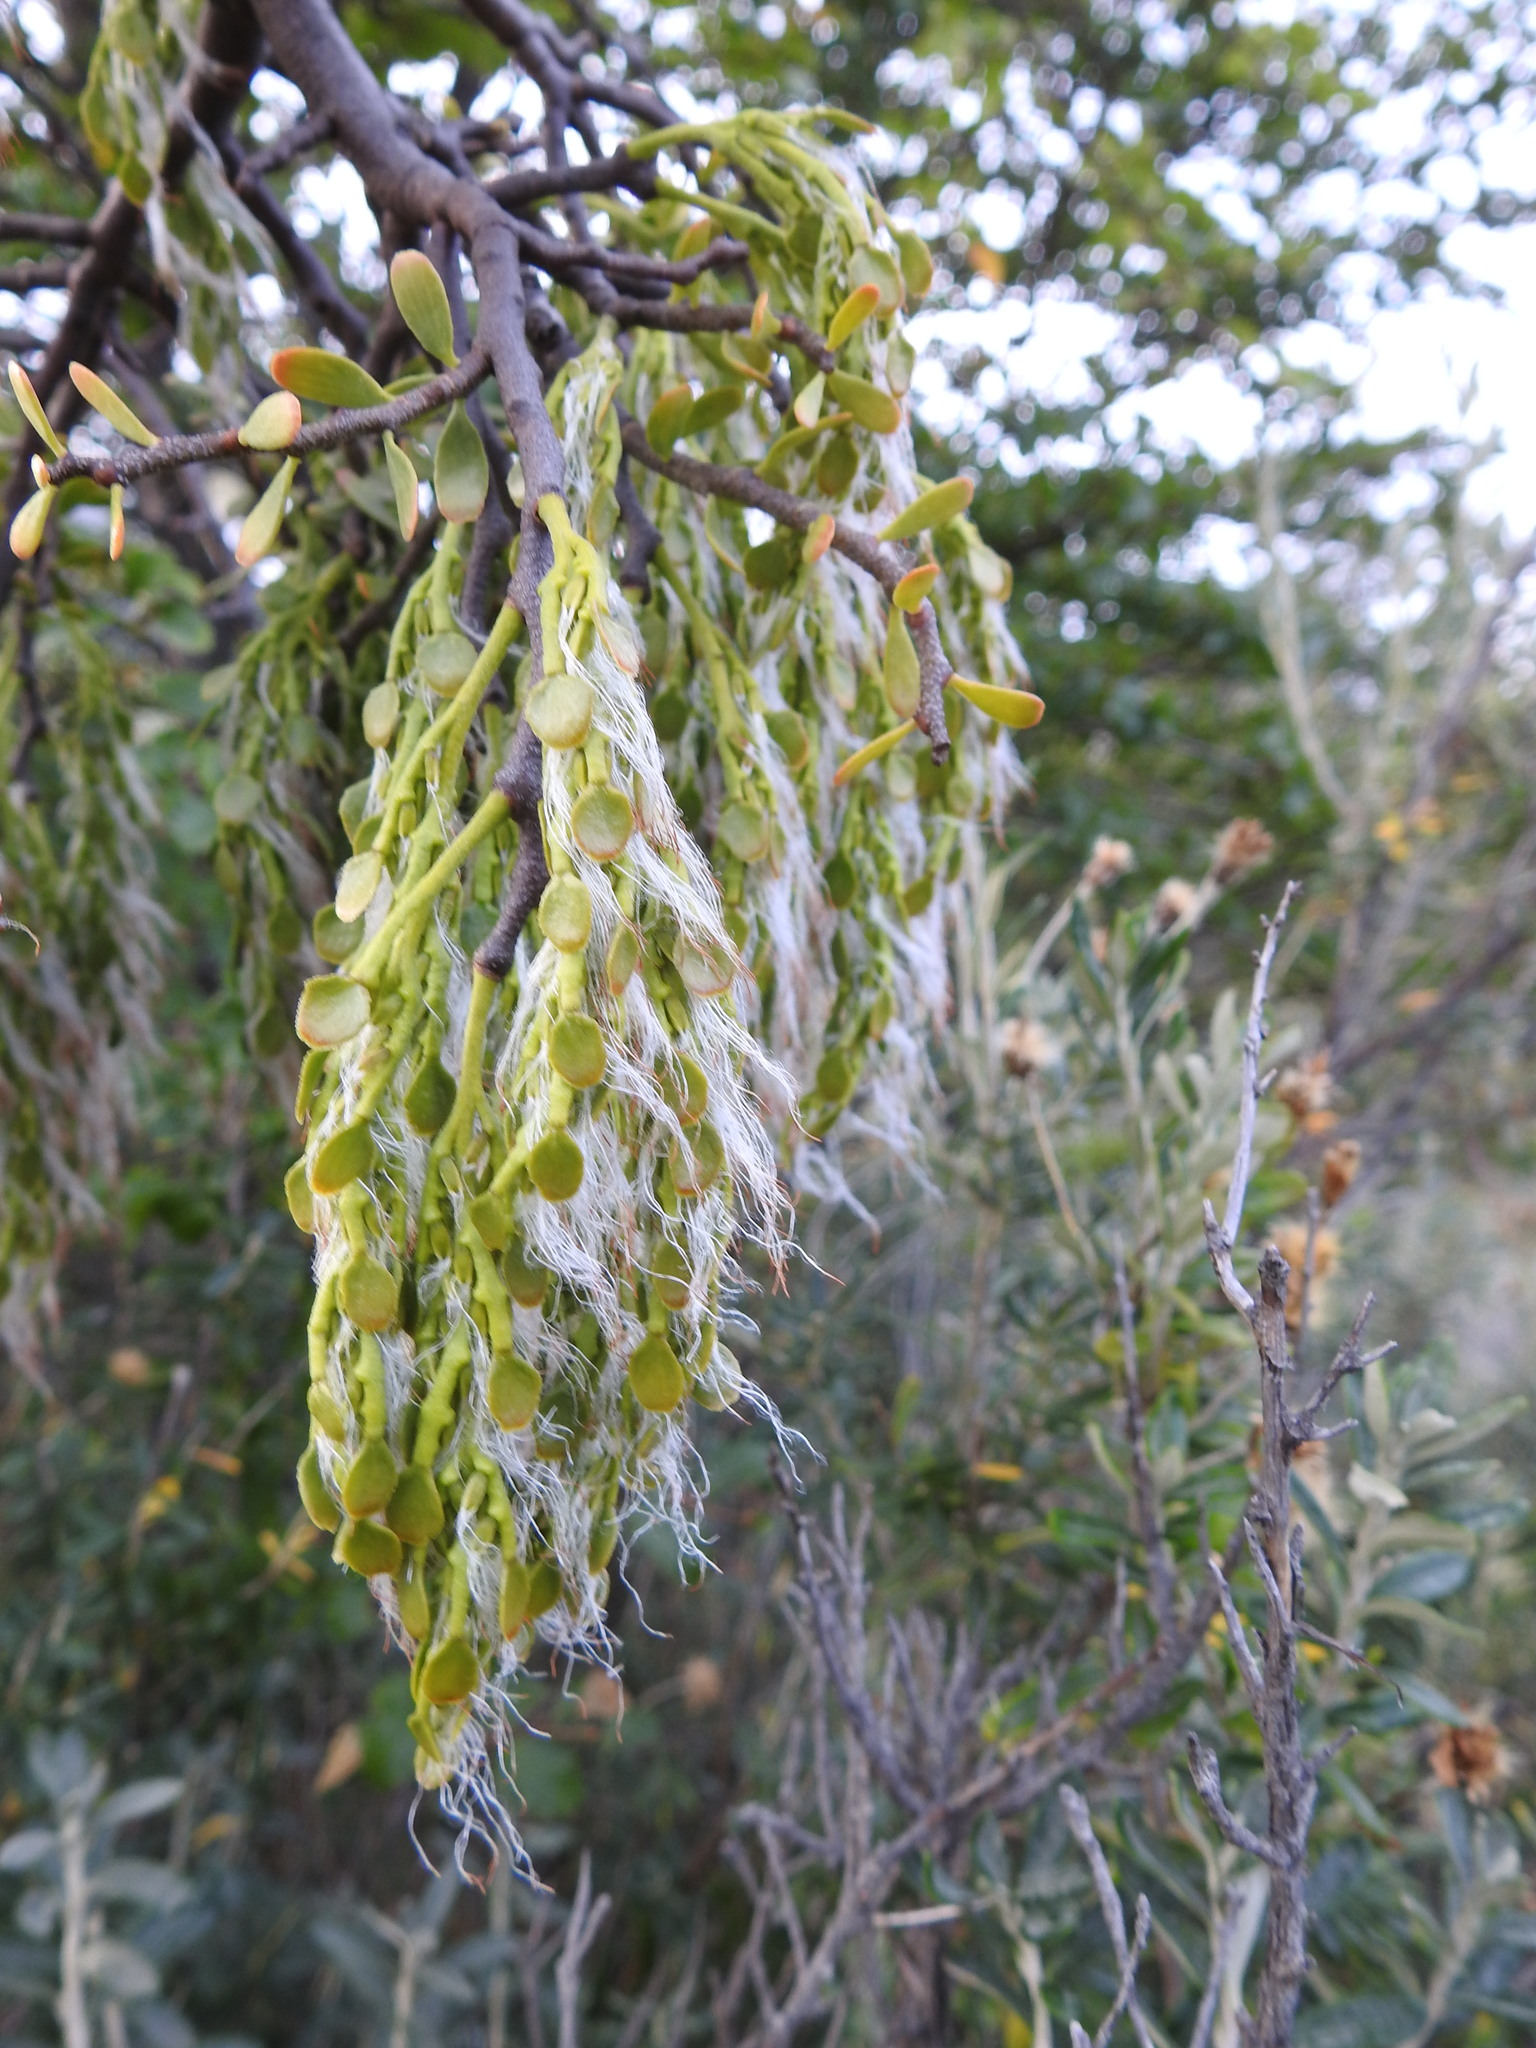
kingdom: Plantae
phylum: Tracheophyta
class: Magnoliopsida
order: Santalales
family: Misodendraceae
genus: Misodendrum
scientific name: Misodendrum quadriflorum
